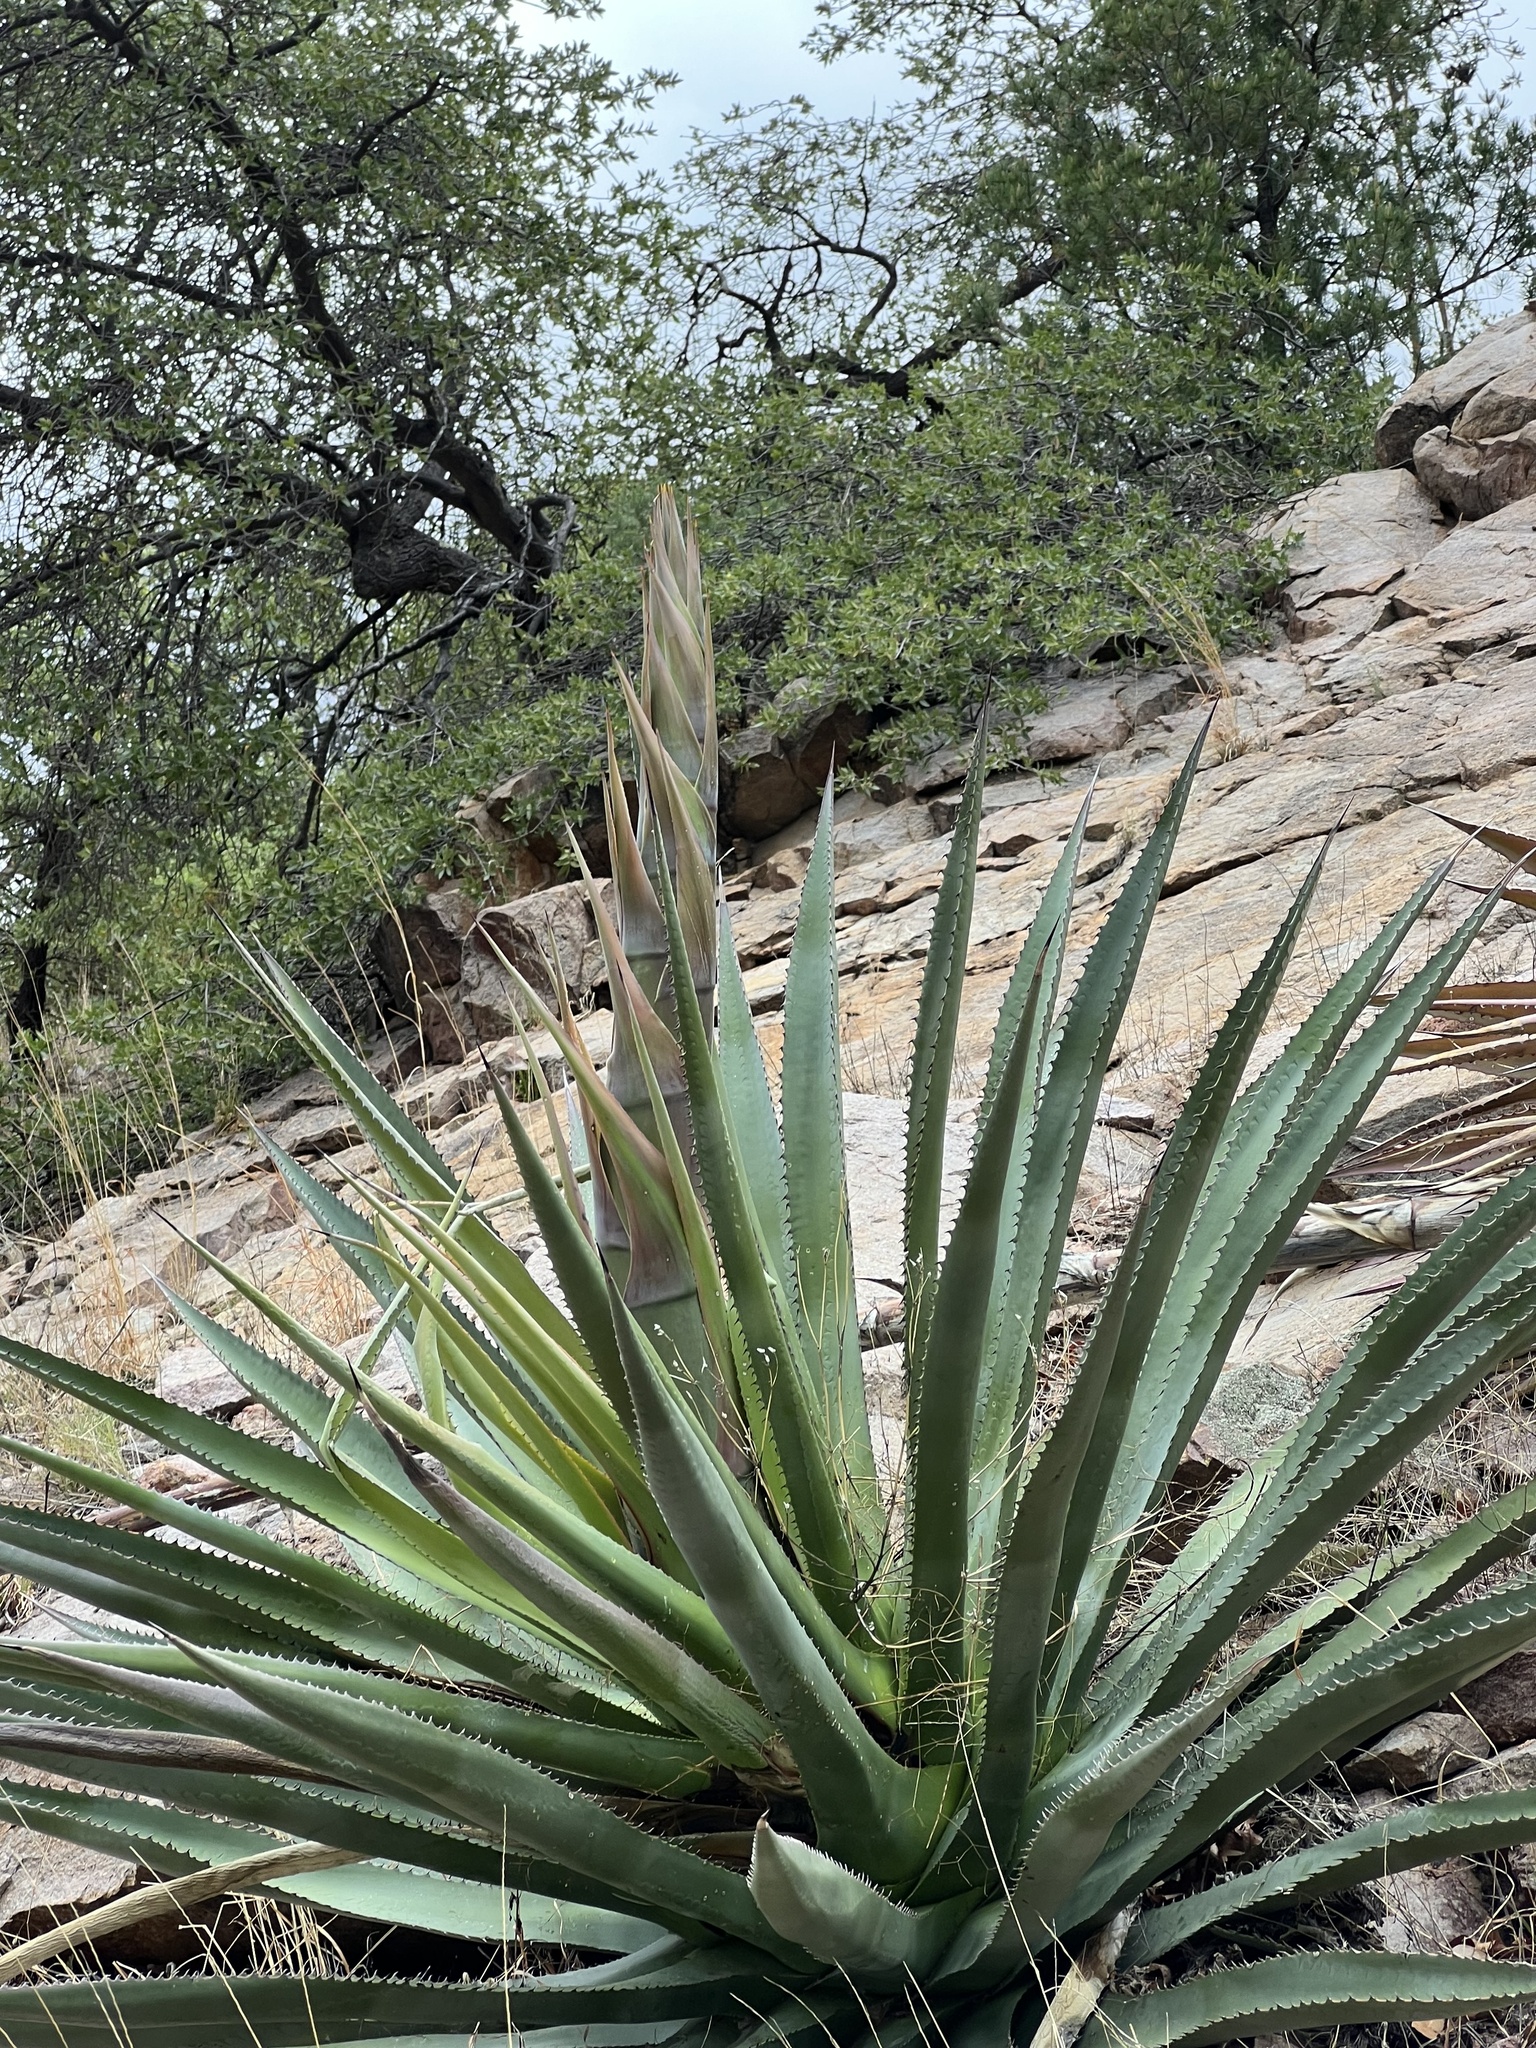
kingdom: Plantae
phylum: Tracheophyta
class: Liliopsida
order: Asparagales
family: Asparagaceae
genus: Agave
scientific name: Agave palmeri
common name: Palmer agave
